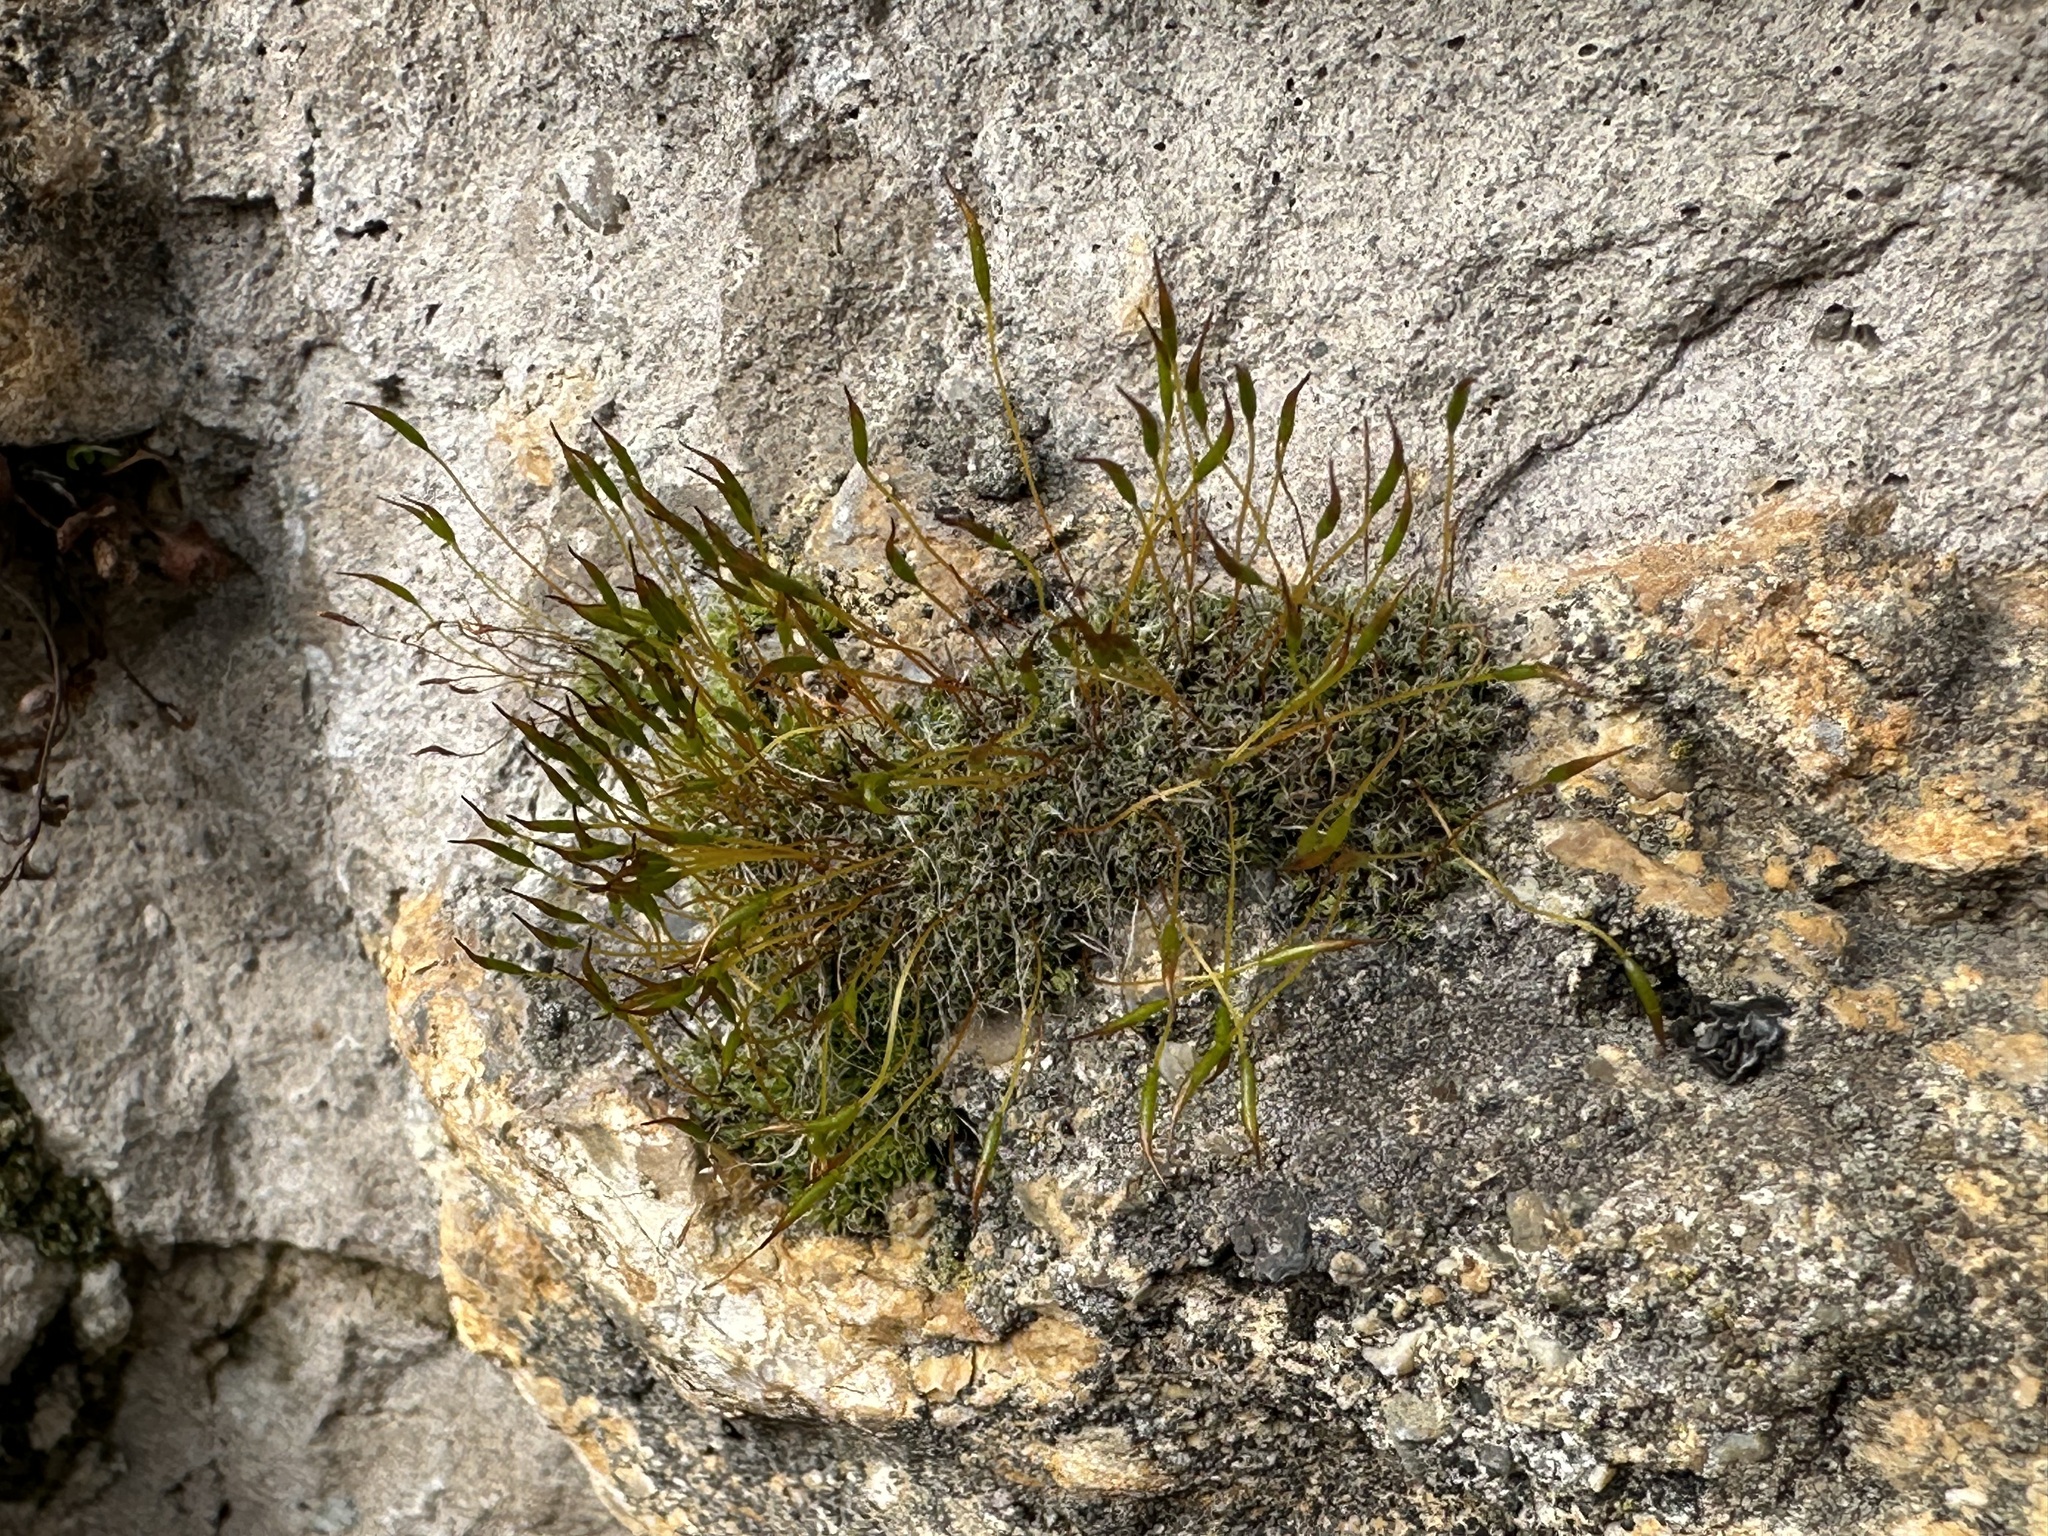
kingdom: Plantae
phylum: Bryophyta
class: Bryopsida
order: Pottiales
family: Pottiaceae
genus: Tortula
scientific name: Tortula muralis
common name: Wall screw-moss
